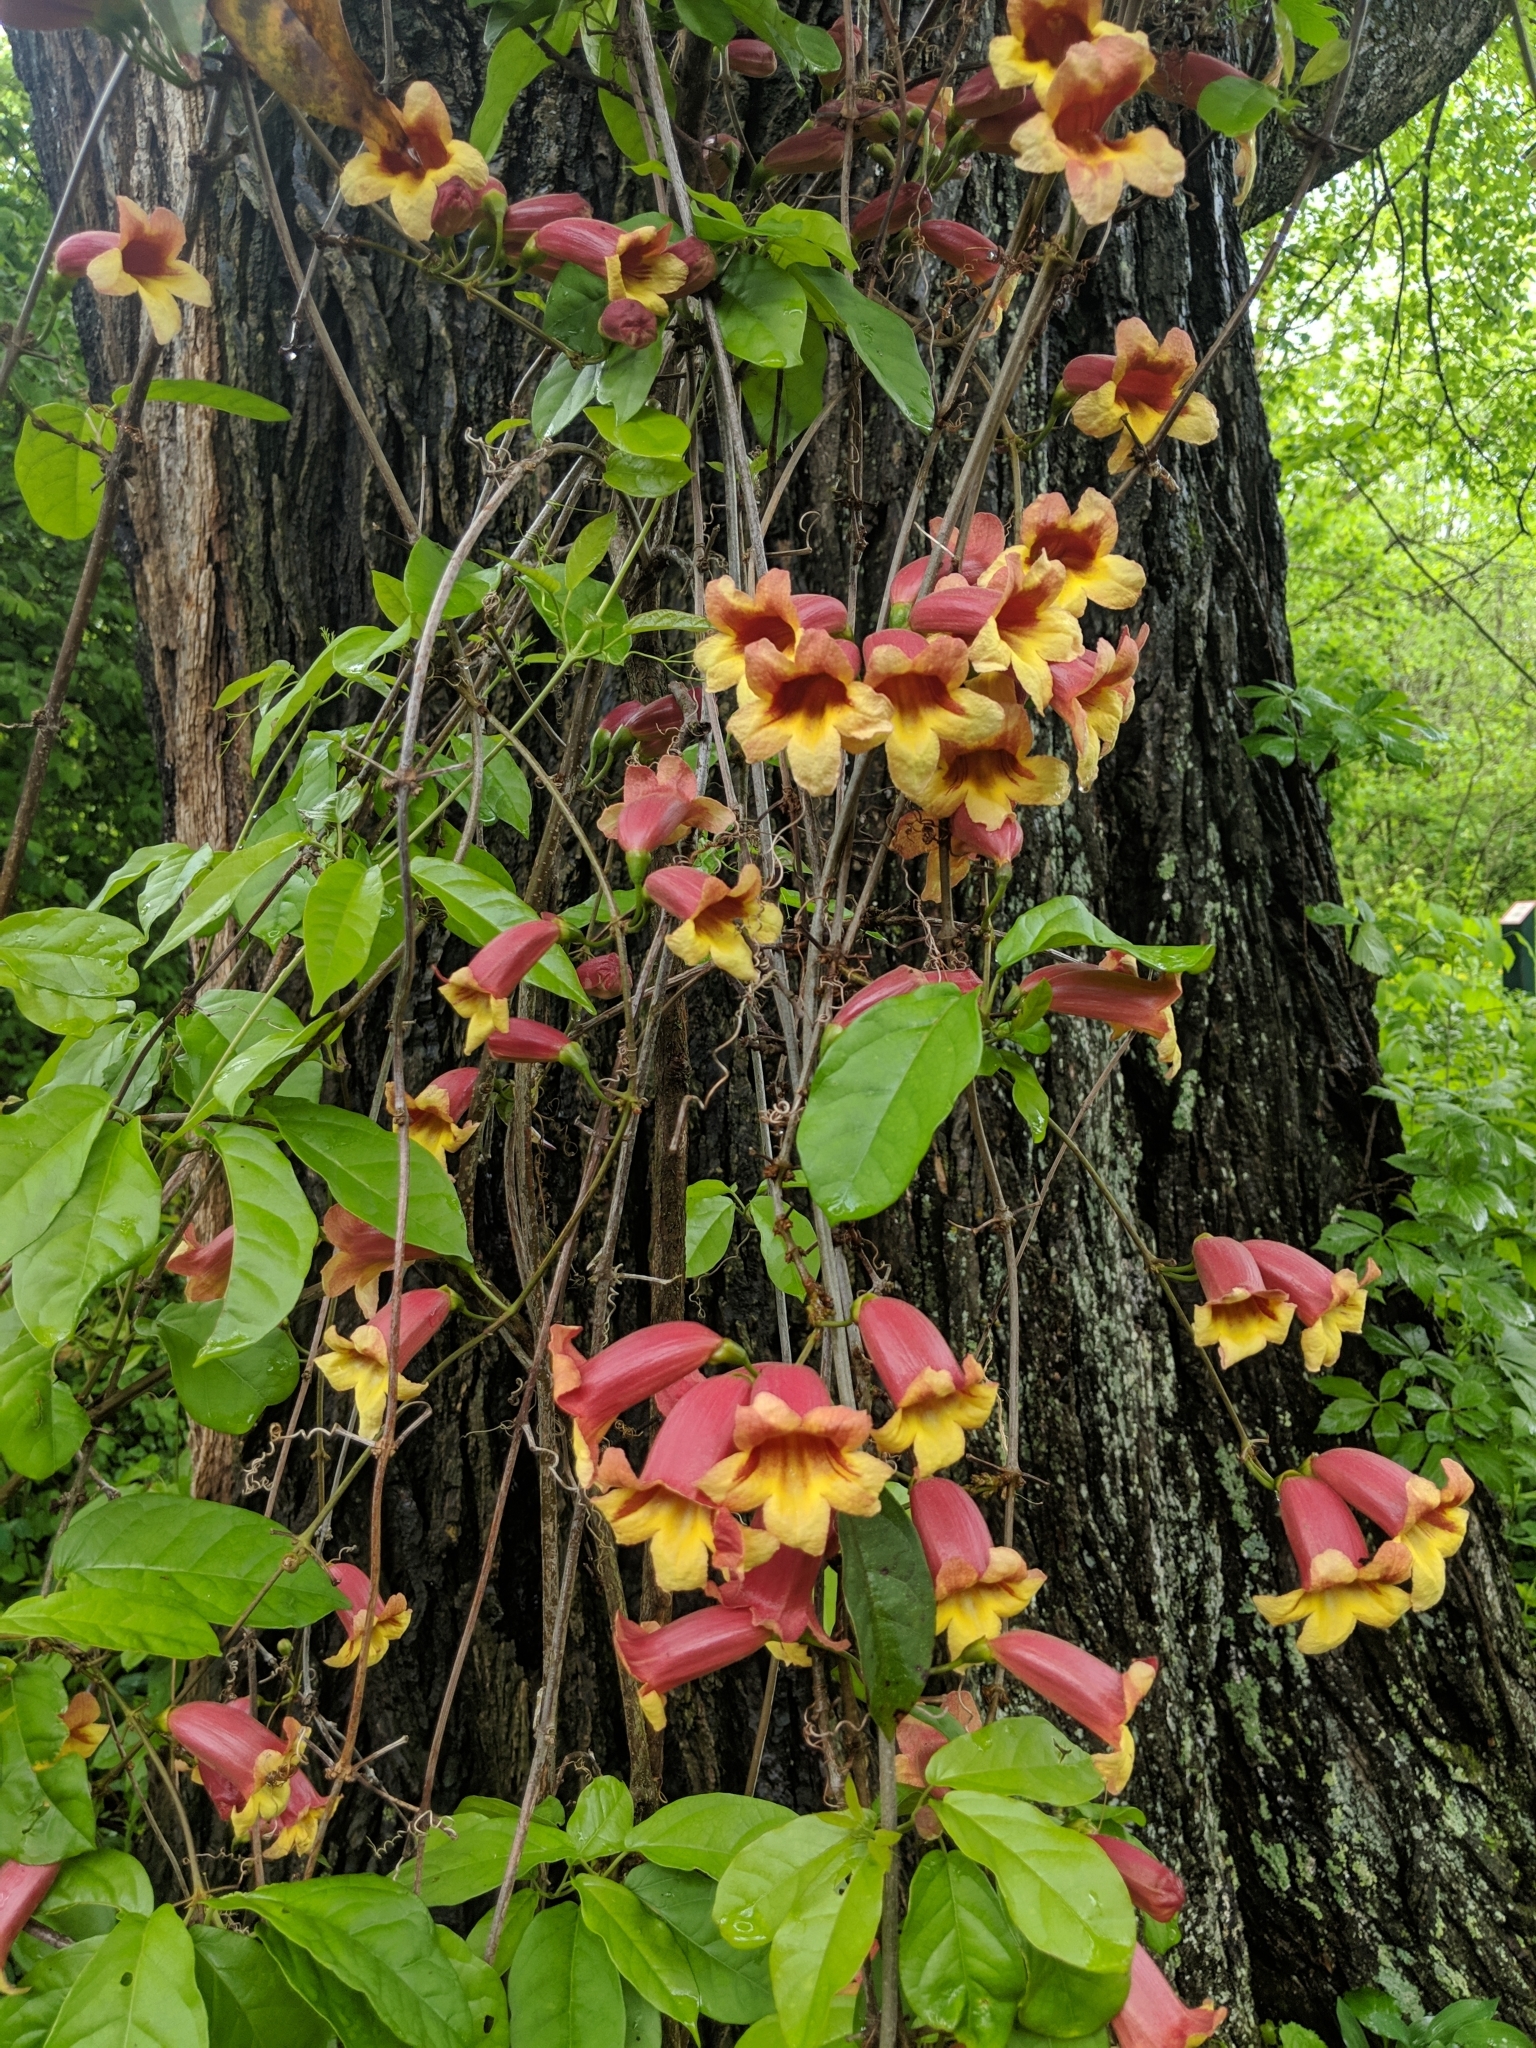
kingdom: Plantae
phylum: Tracheophyta
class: Magnoliopsida
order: Lamiales
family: Bignoniaceae
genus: Bignonia
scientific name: Bignonia capreolata
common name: Crossvine
